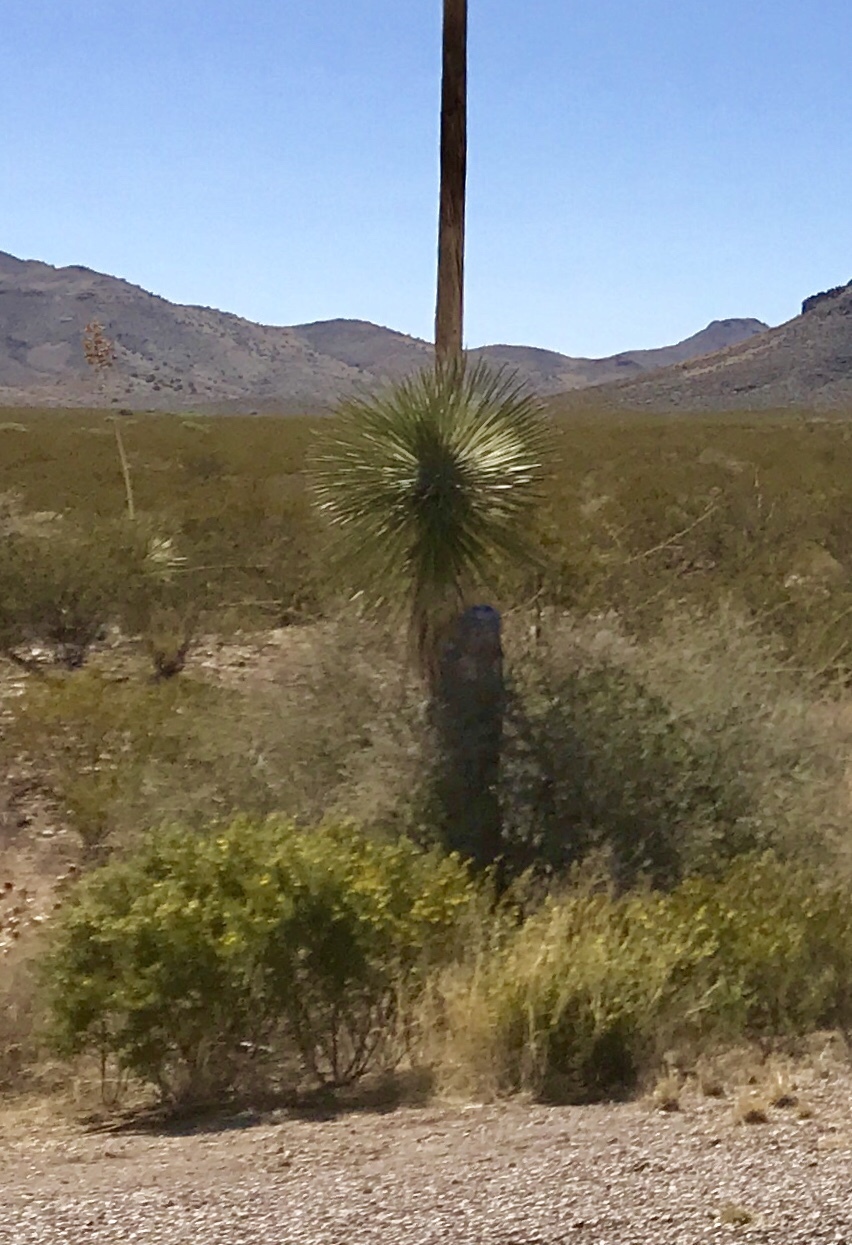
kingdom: Plantae
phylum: Tracheophyta
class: Liliopsida
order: Asparagales
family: Asparagaceae
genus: Yucca
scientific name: Yucca elata
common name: Palmella
